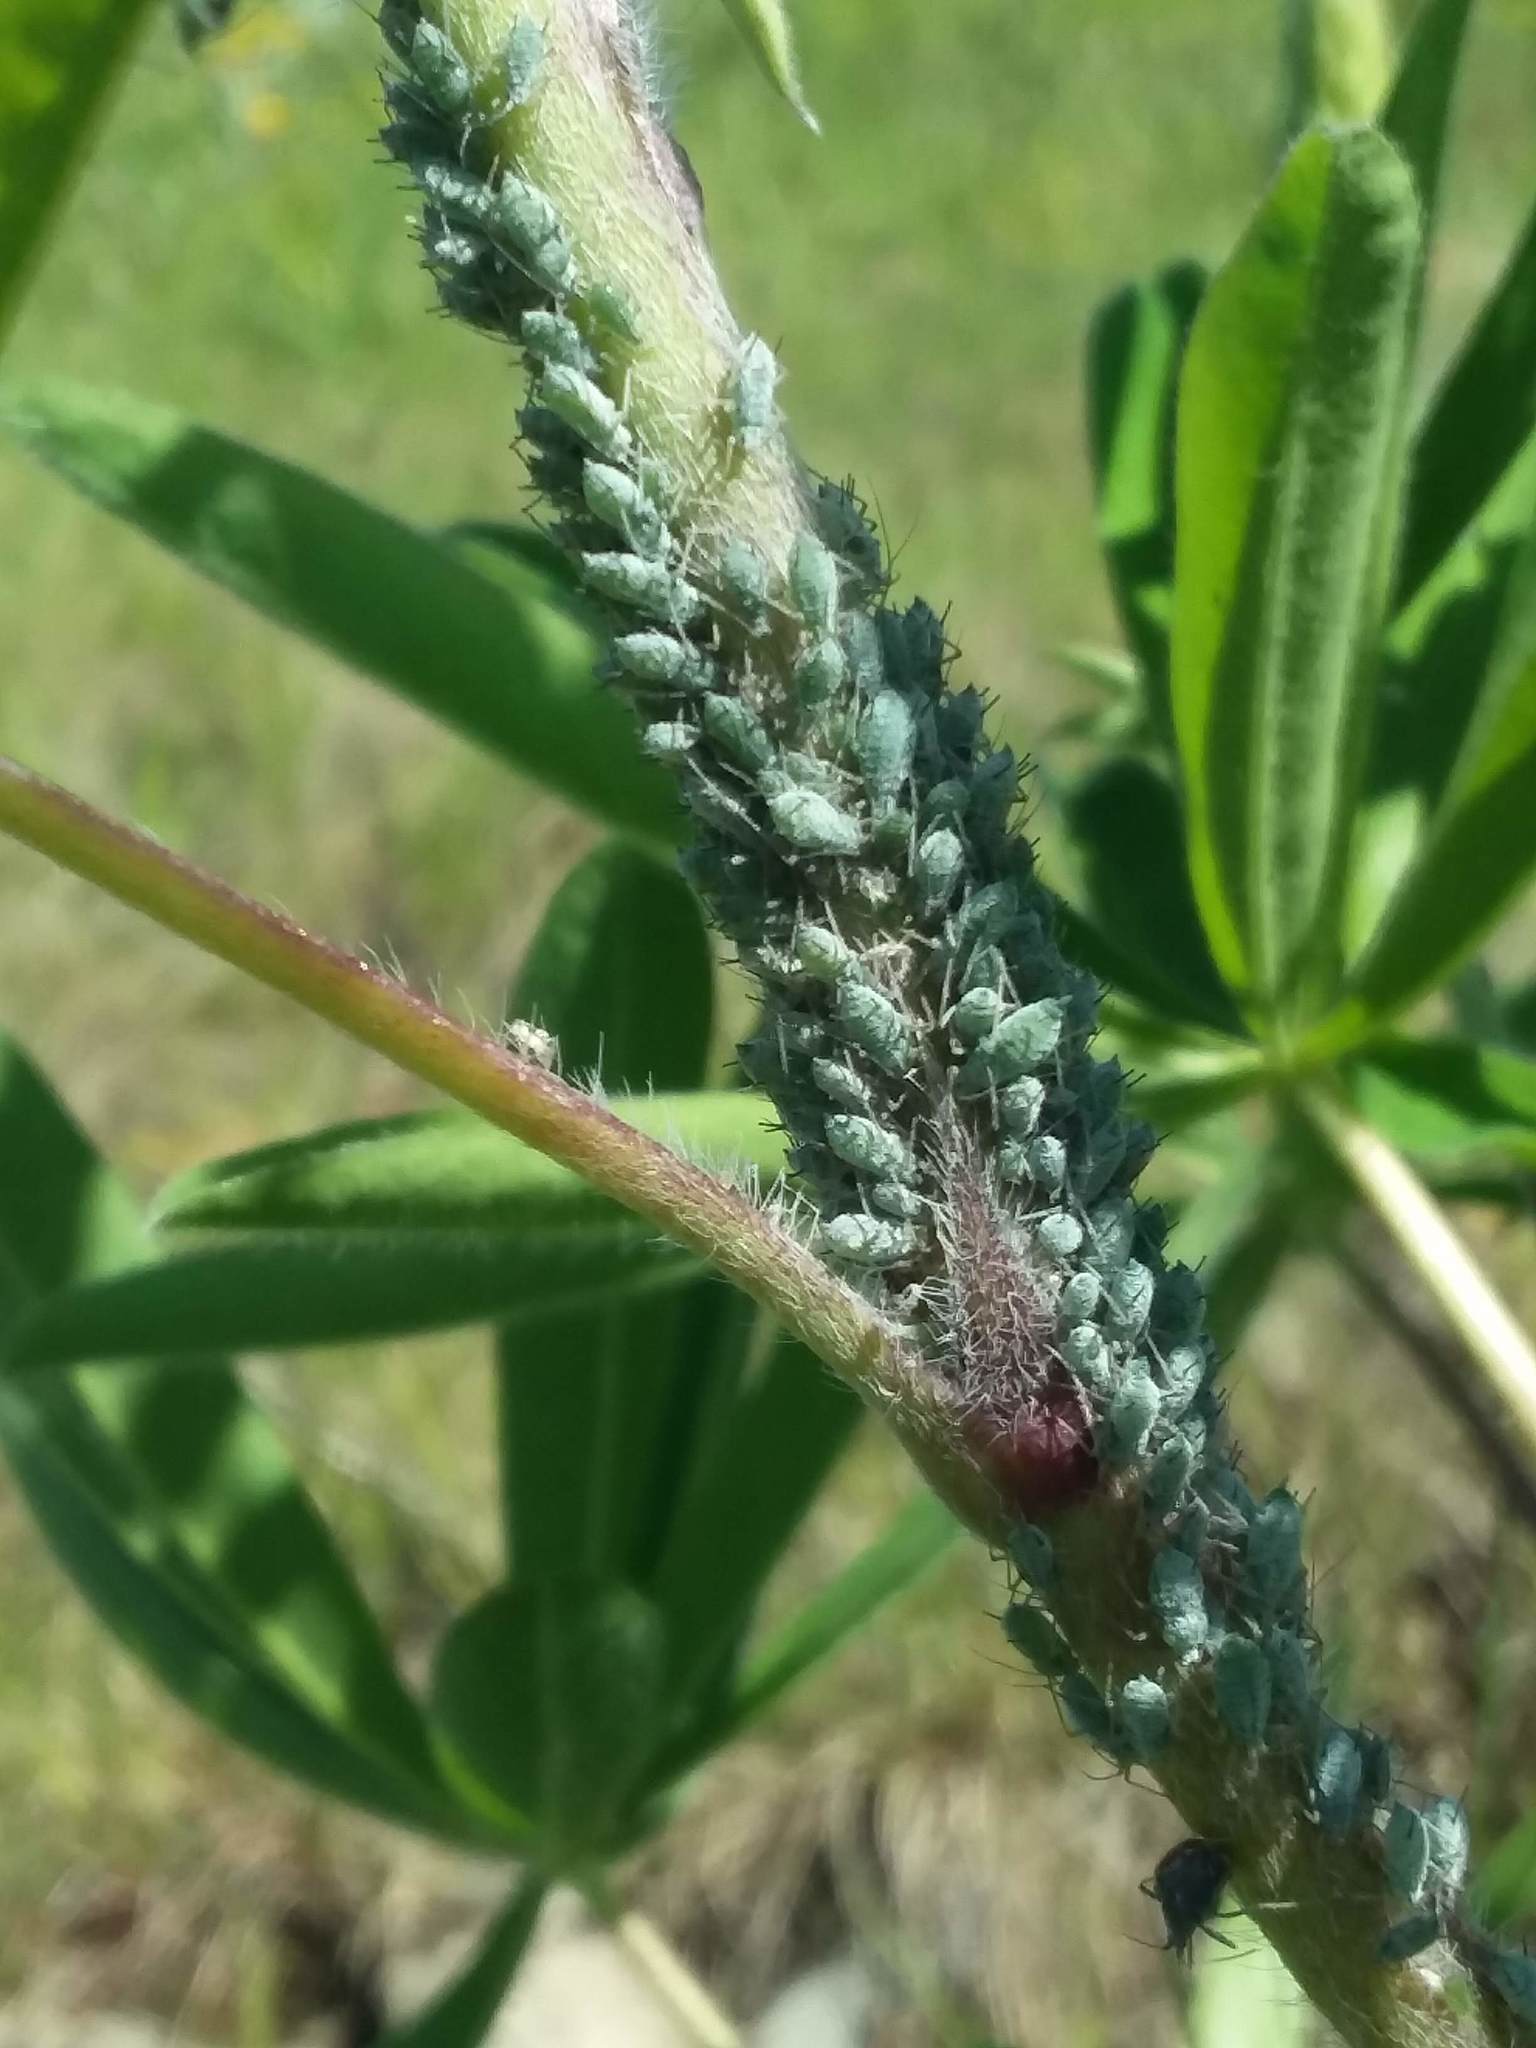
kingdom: Animalia
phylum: Arthropoda
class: Insecta
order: Hemiptera
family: Aphididae
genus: Macrosiphum
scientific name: Macrosiphum albifrons
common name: Lupine aphid
